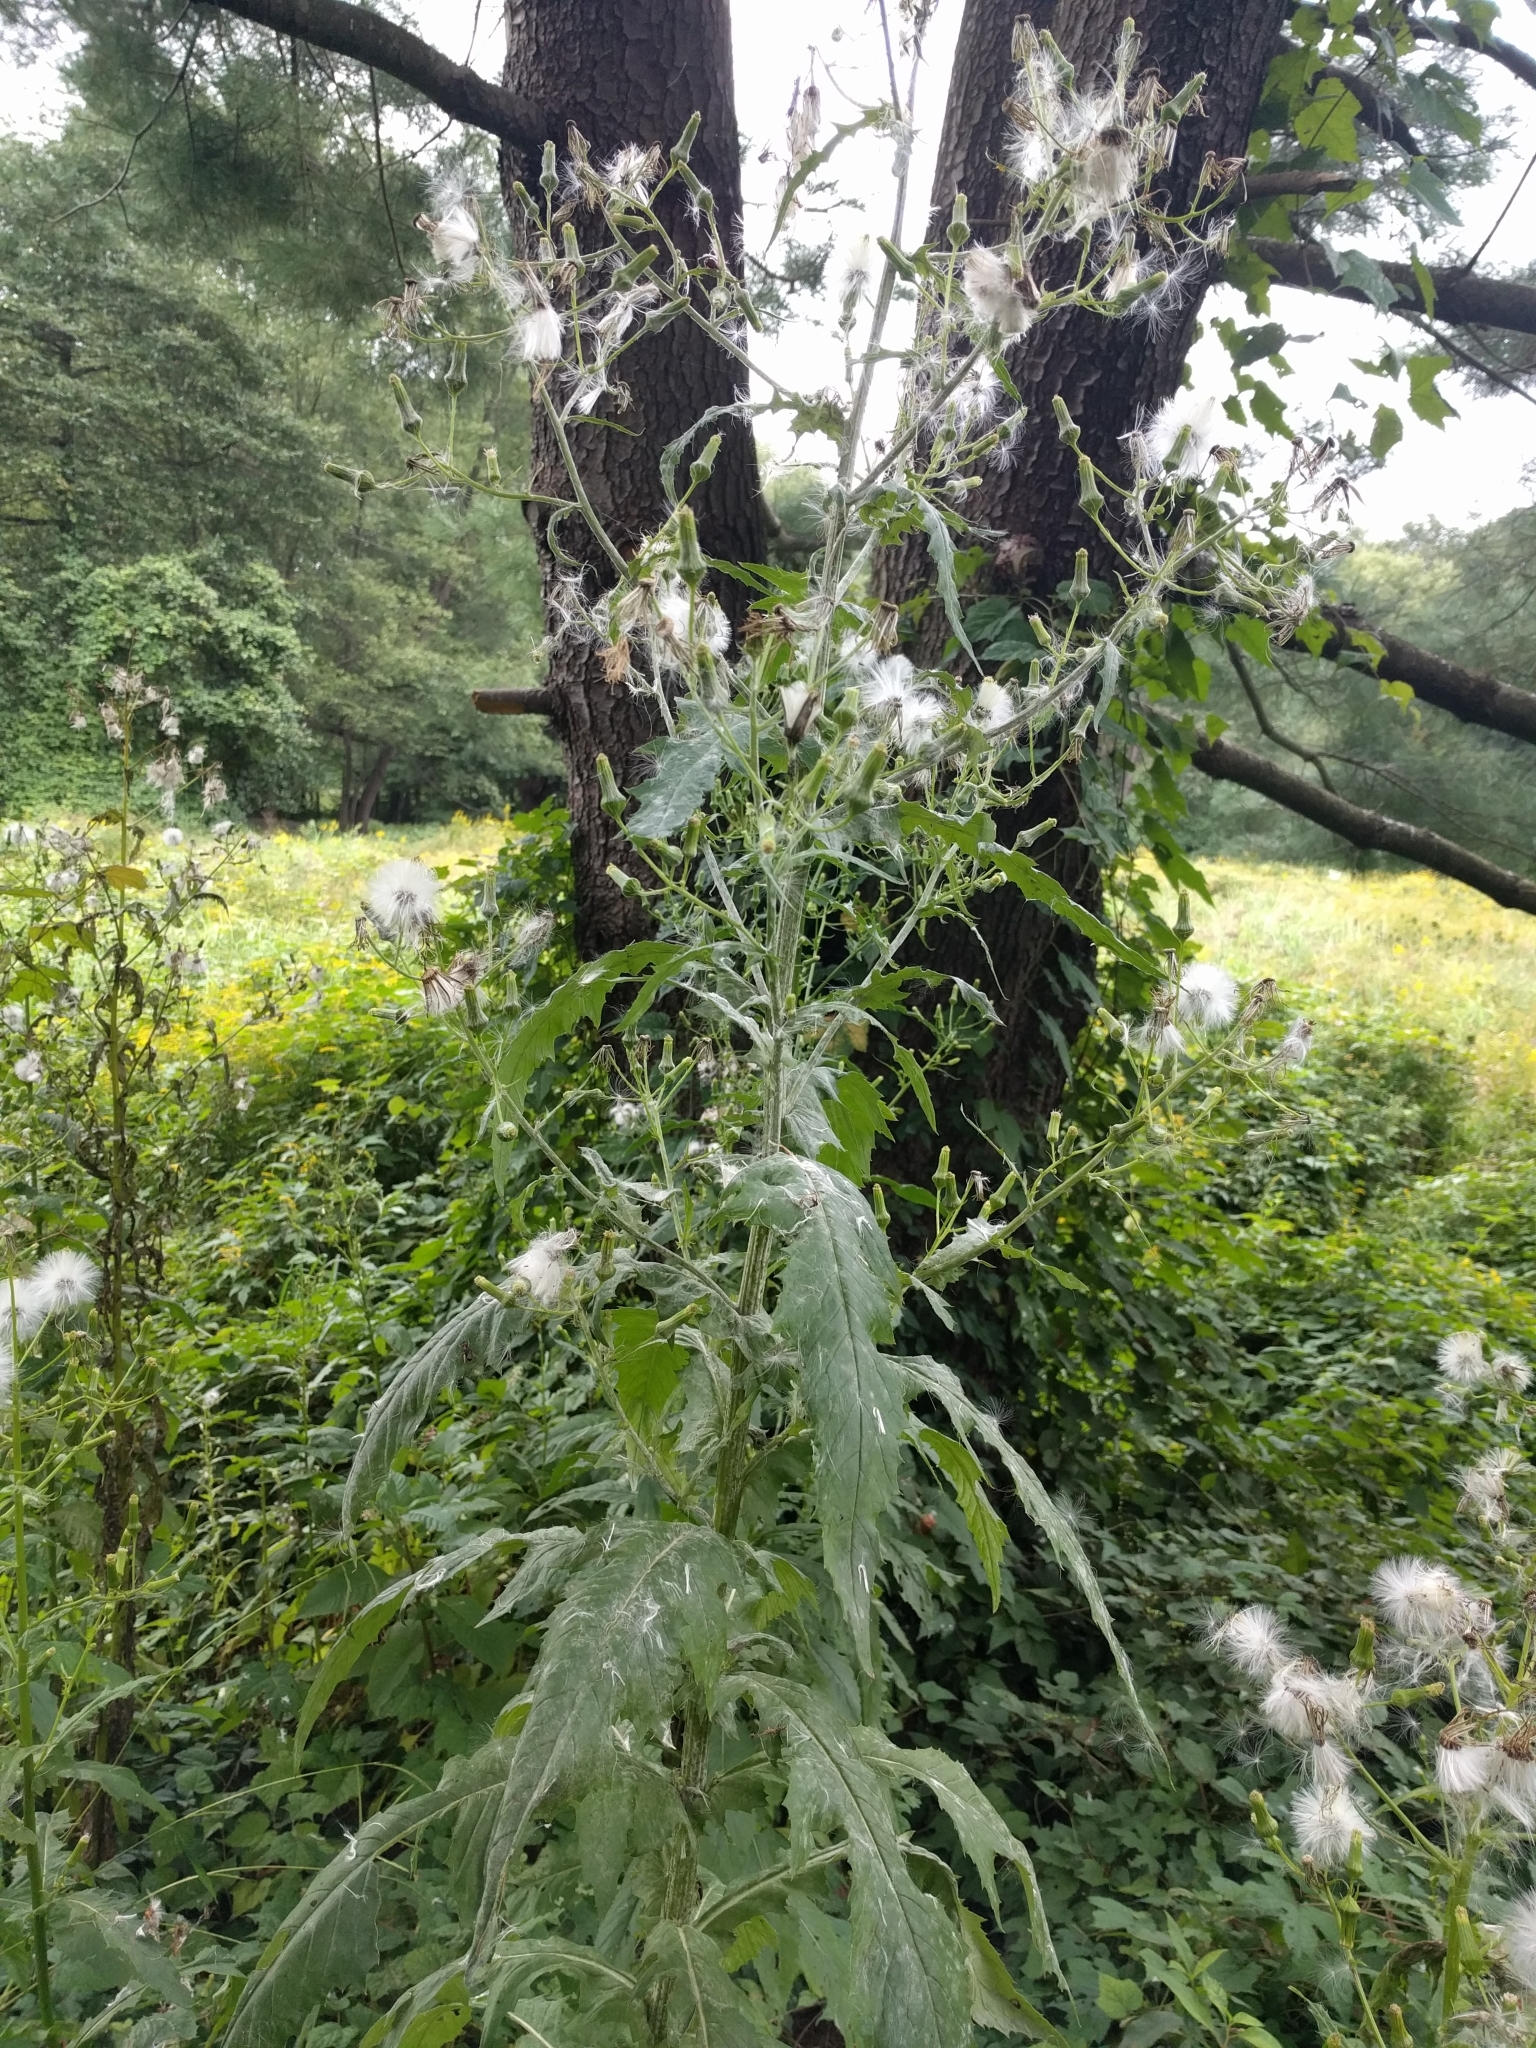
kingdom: Plantae
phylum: Tracheophyta
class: Magnoliopsida
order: Asterales
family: Asteraceae
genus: Erechtites
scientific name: Erechtites hieraciifolius
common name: American burnweed
